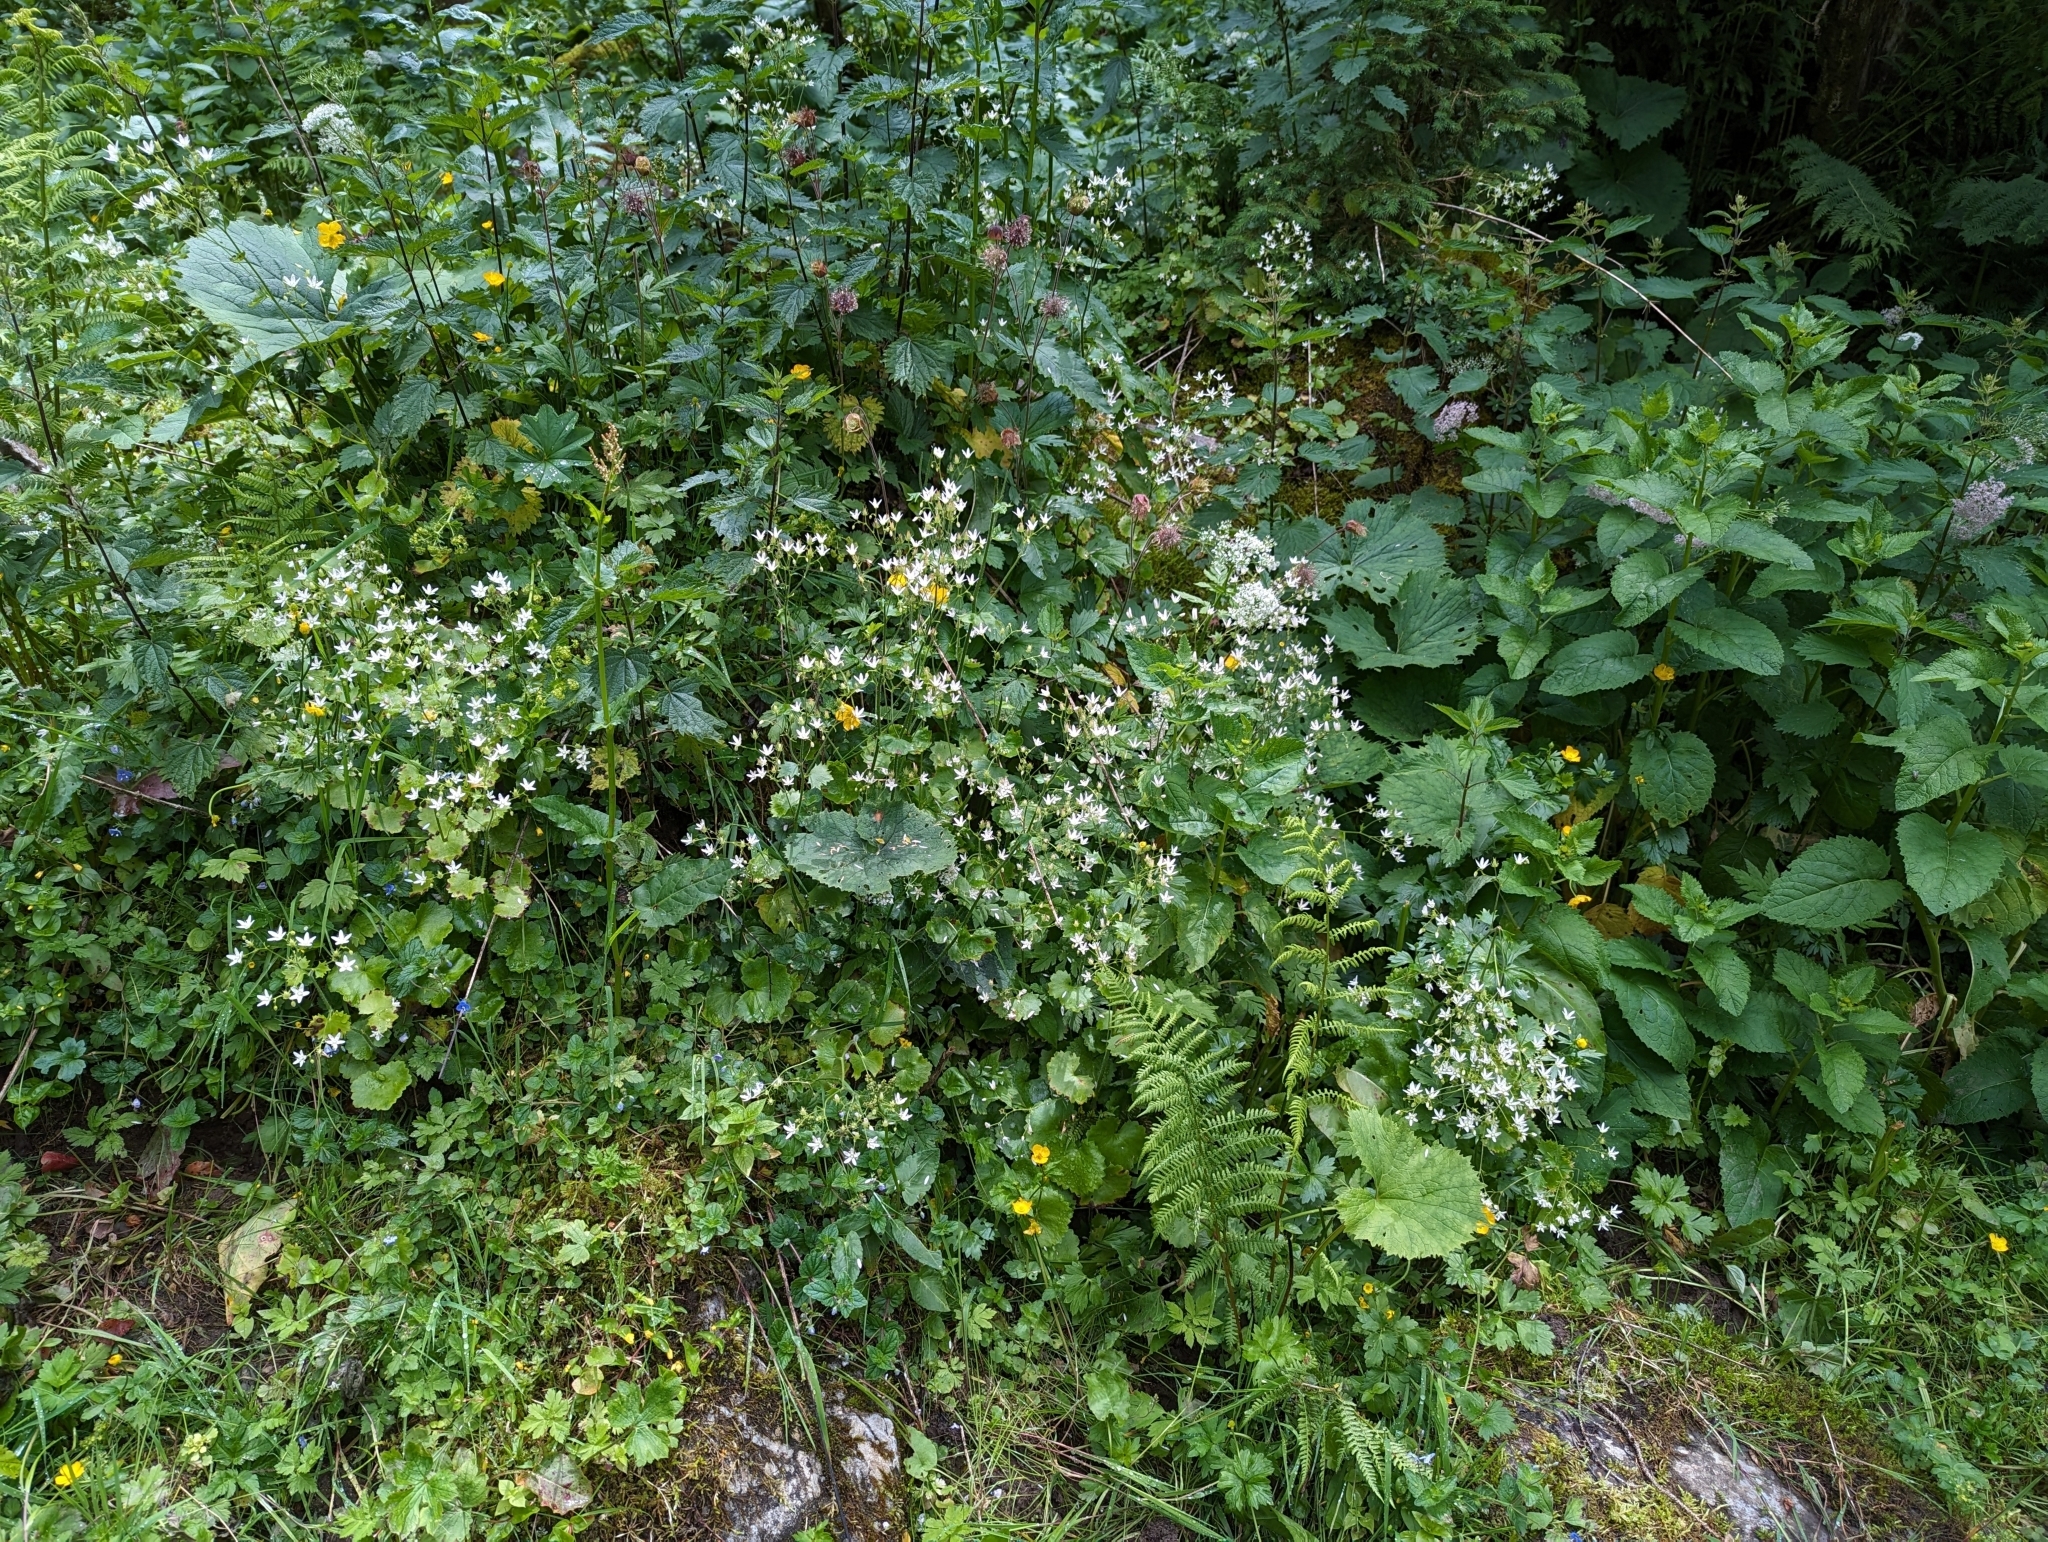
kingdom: Plantae
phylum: Tracheophyta
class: Magnoliopsida
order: Saxifragales
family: Saxifragaceae
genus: Saxifraga
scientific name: Saxifraga rotundifolia
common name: Round-leaved saxifrage
